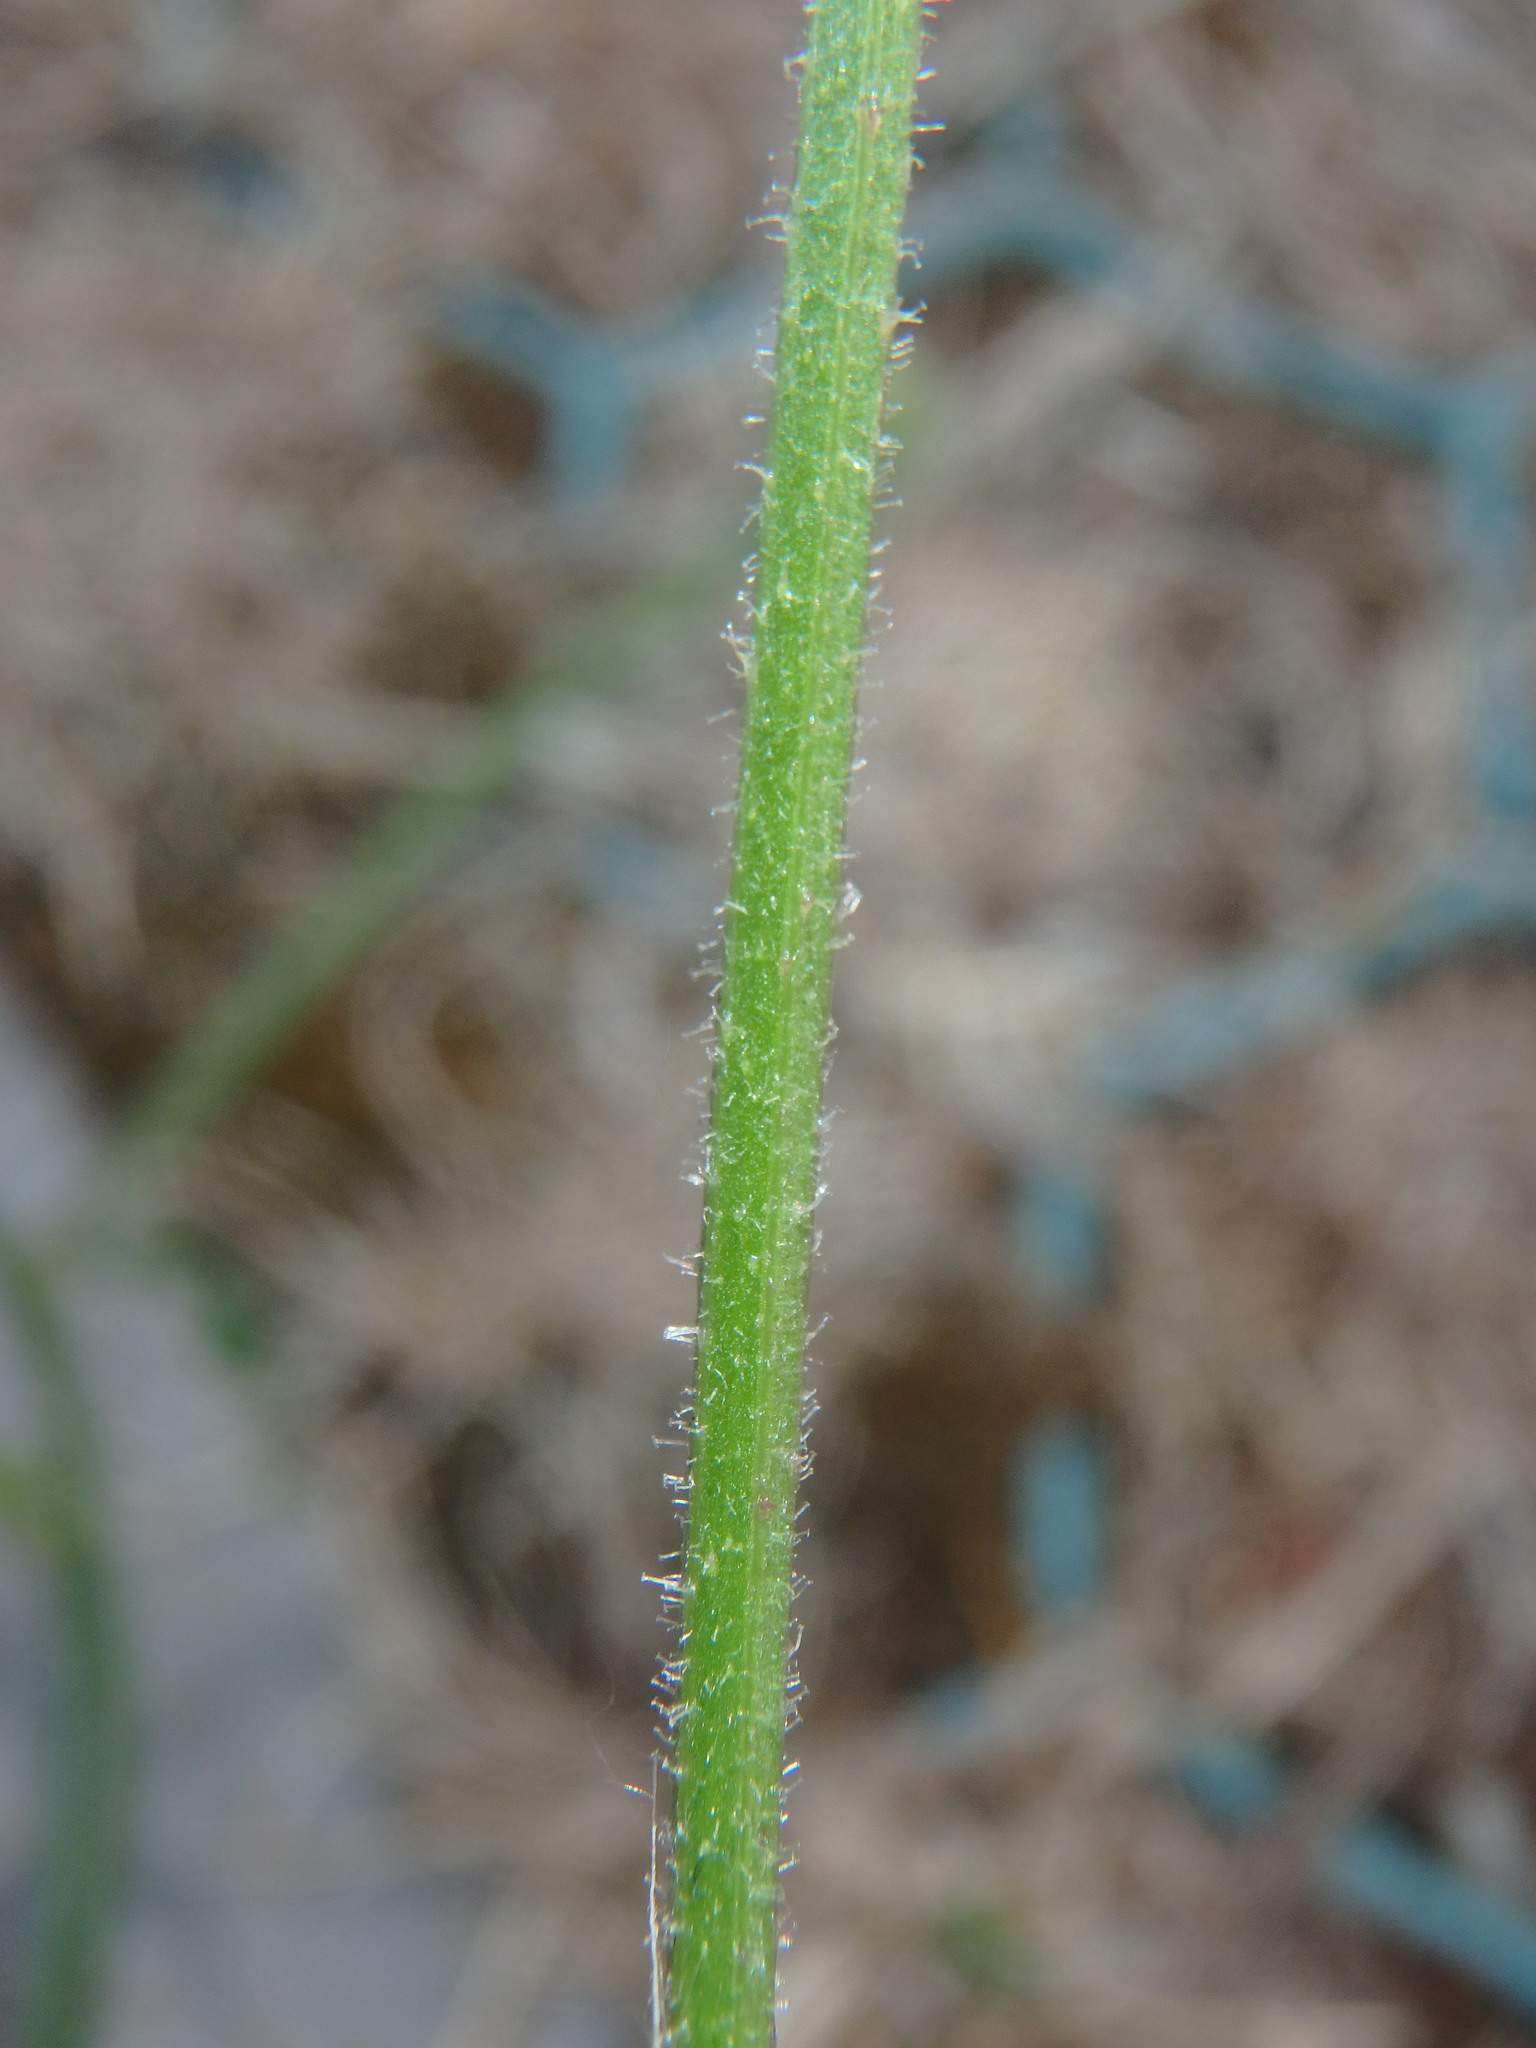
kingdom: Plantae
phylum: Tracheophyta
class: Magnoliopsida
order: Asterales
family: Asteraceae
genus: Picris
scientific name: Picris hieracioides
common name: Hawkweed oxtongue
